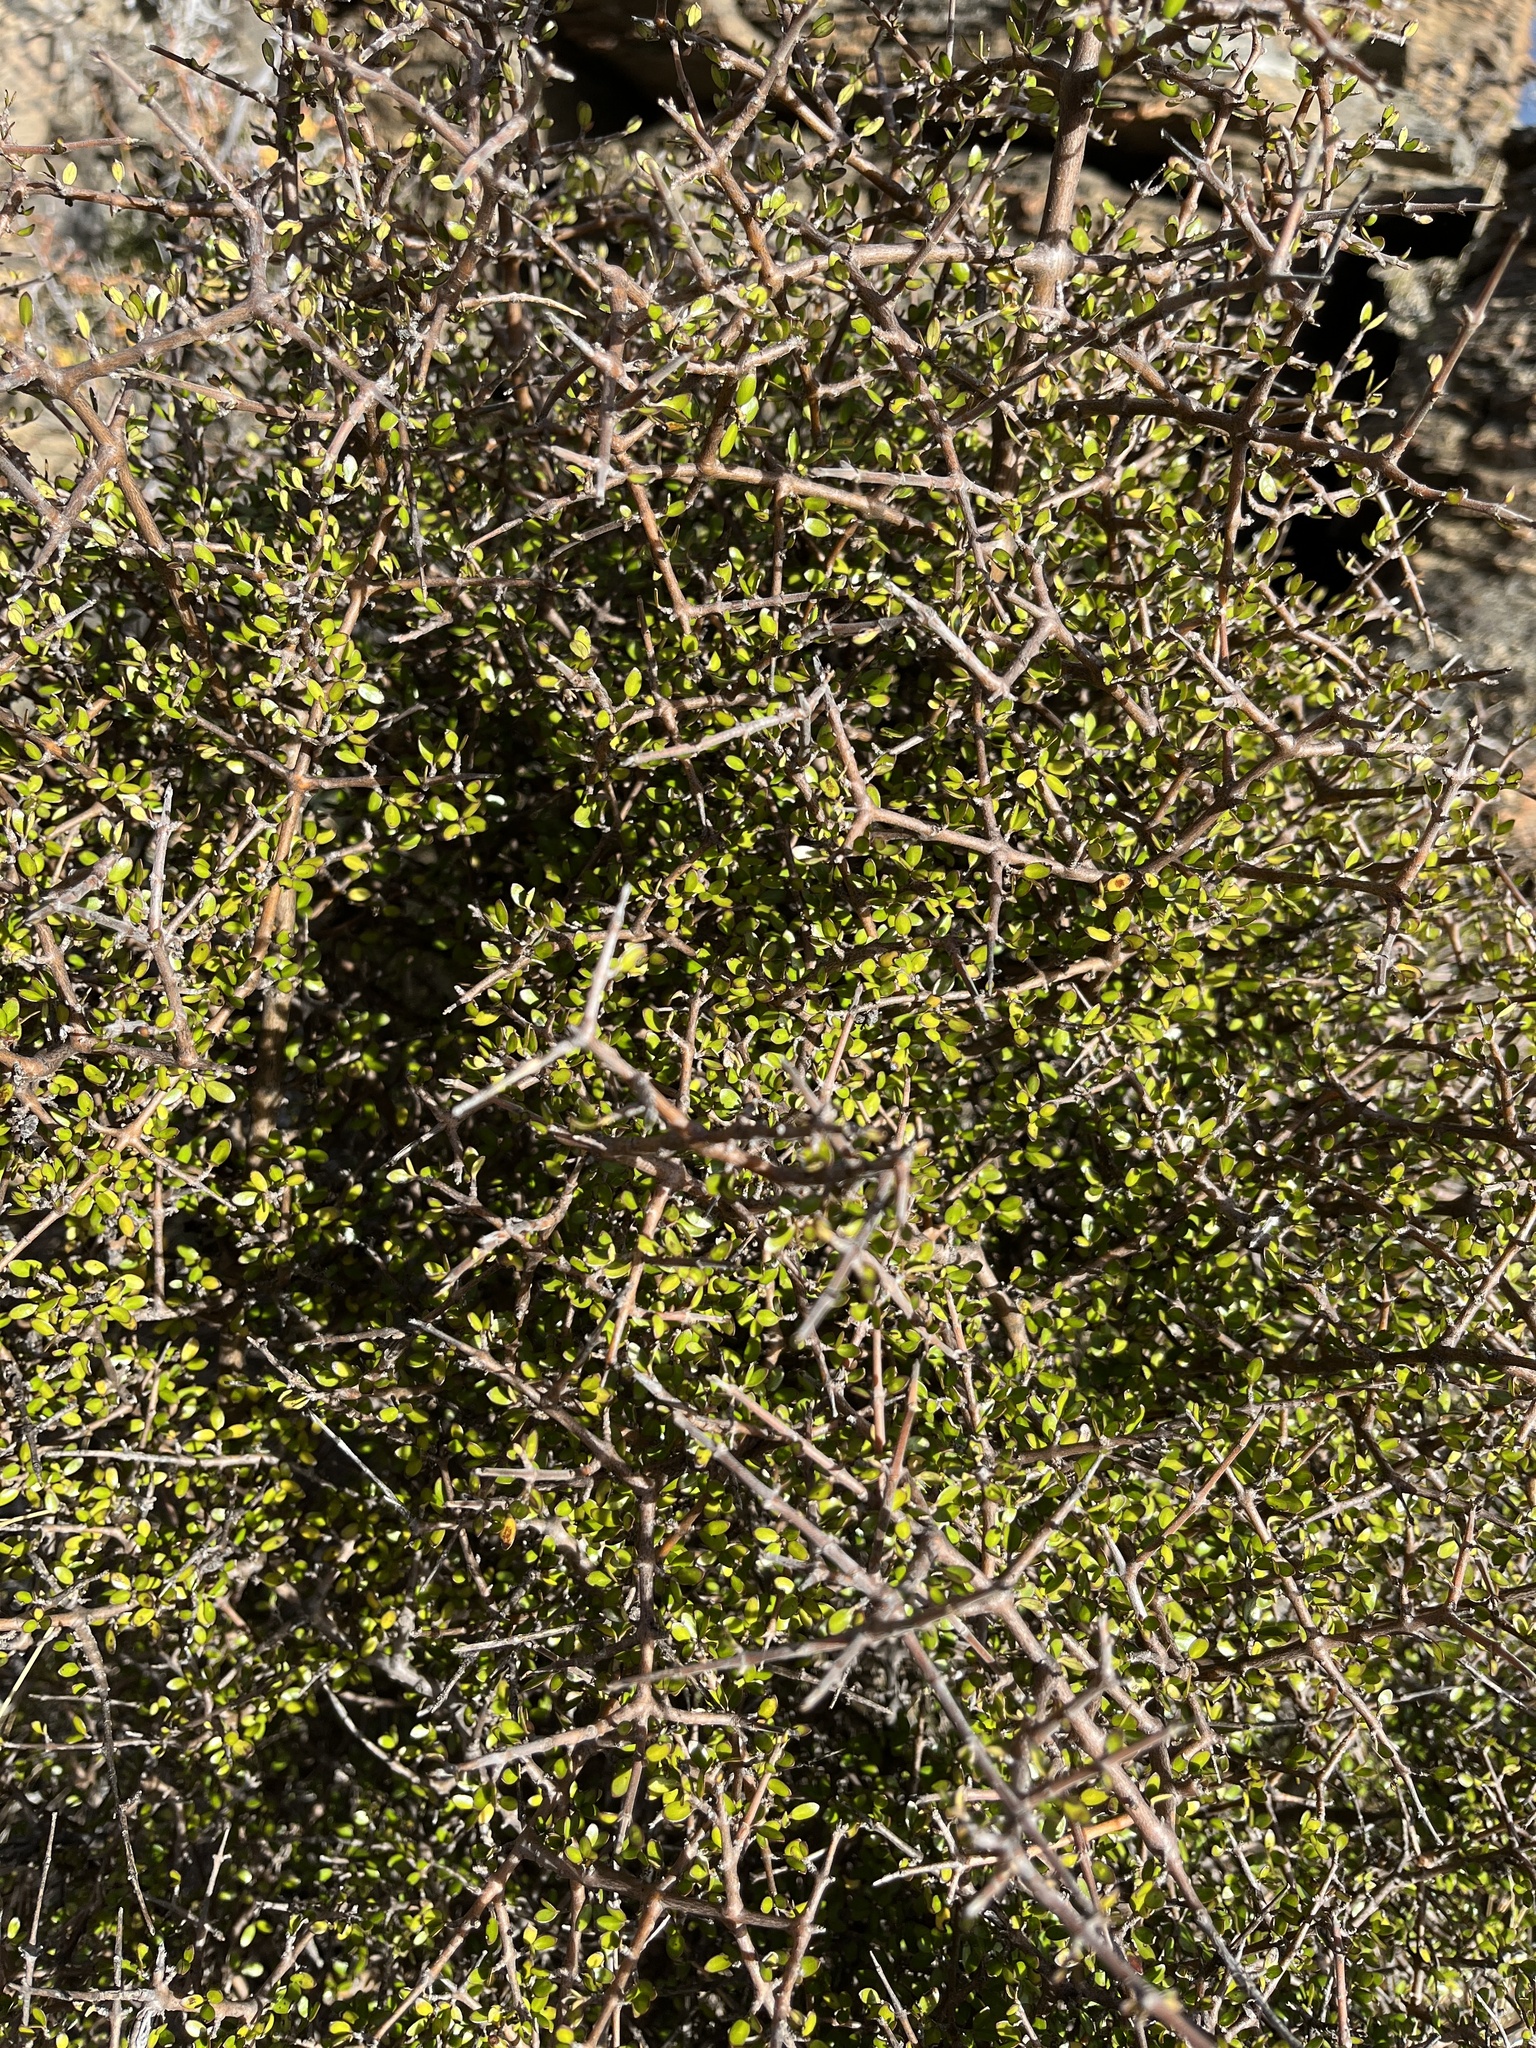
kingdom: Plantae
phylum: Tracheophyta
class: Magnoliopsida
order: Gentianales
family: Rubiaceae
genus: Coprosma
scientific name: Coprosma propinqua
